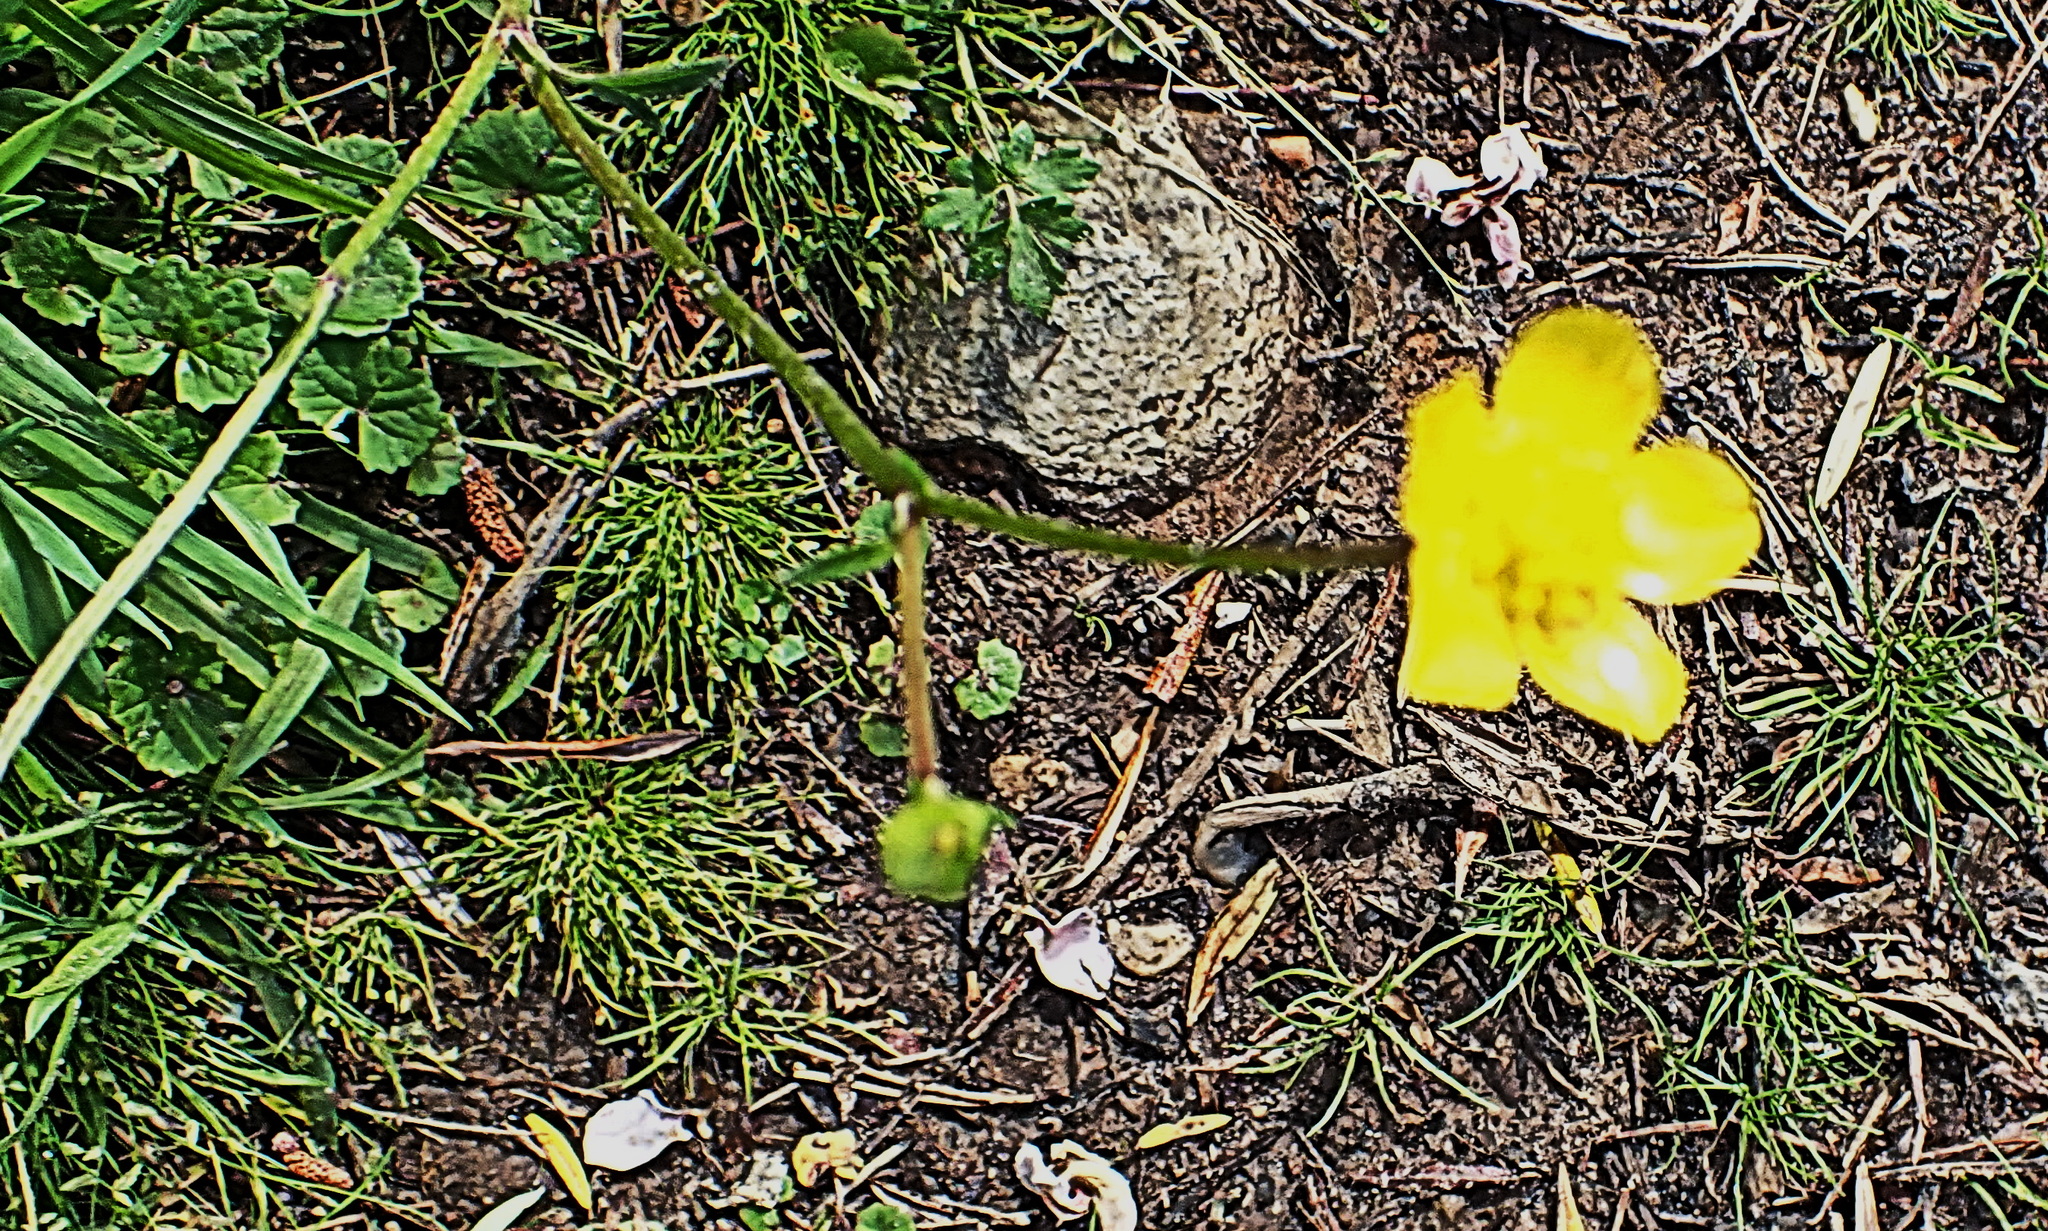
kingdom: Plantae
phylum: Tracheophyta
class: Magnoliopsida
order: Ranunculales
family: Ranunculaceae
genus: Ranunculus
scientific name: Ranunculus multifidus
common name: Wild buttercup
